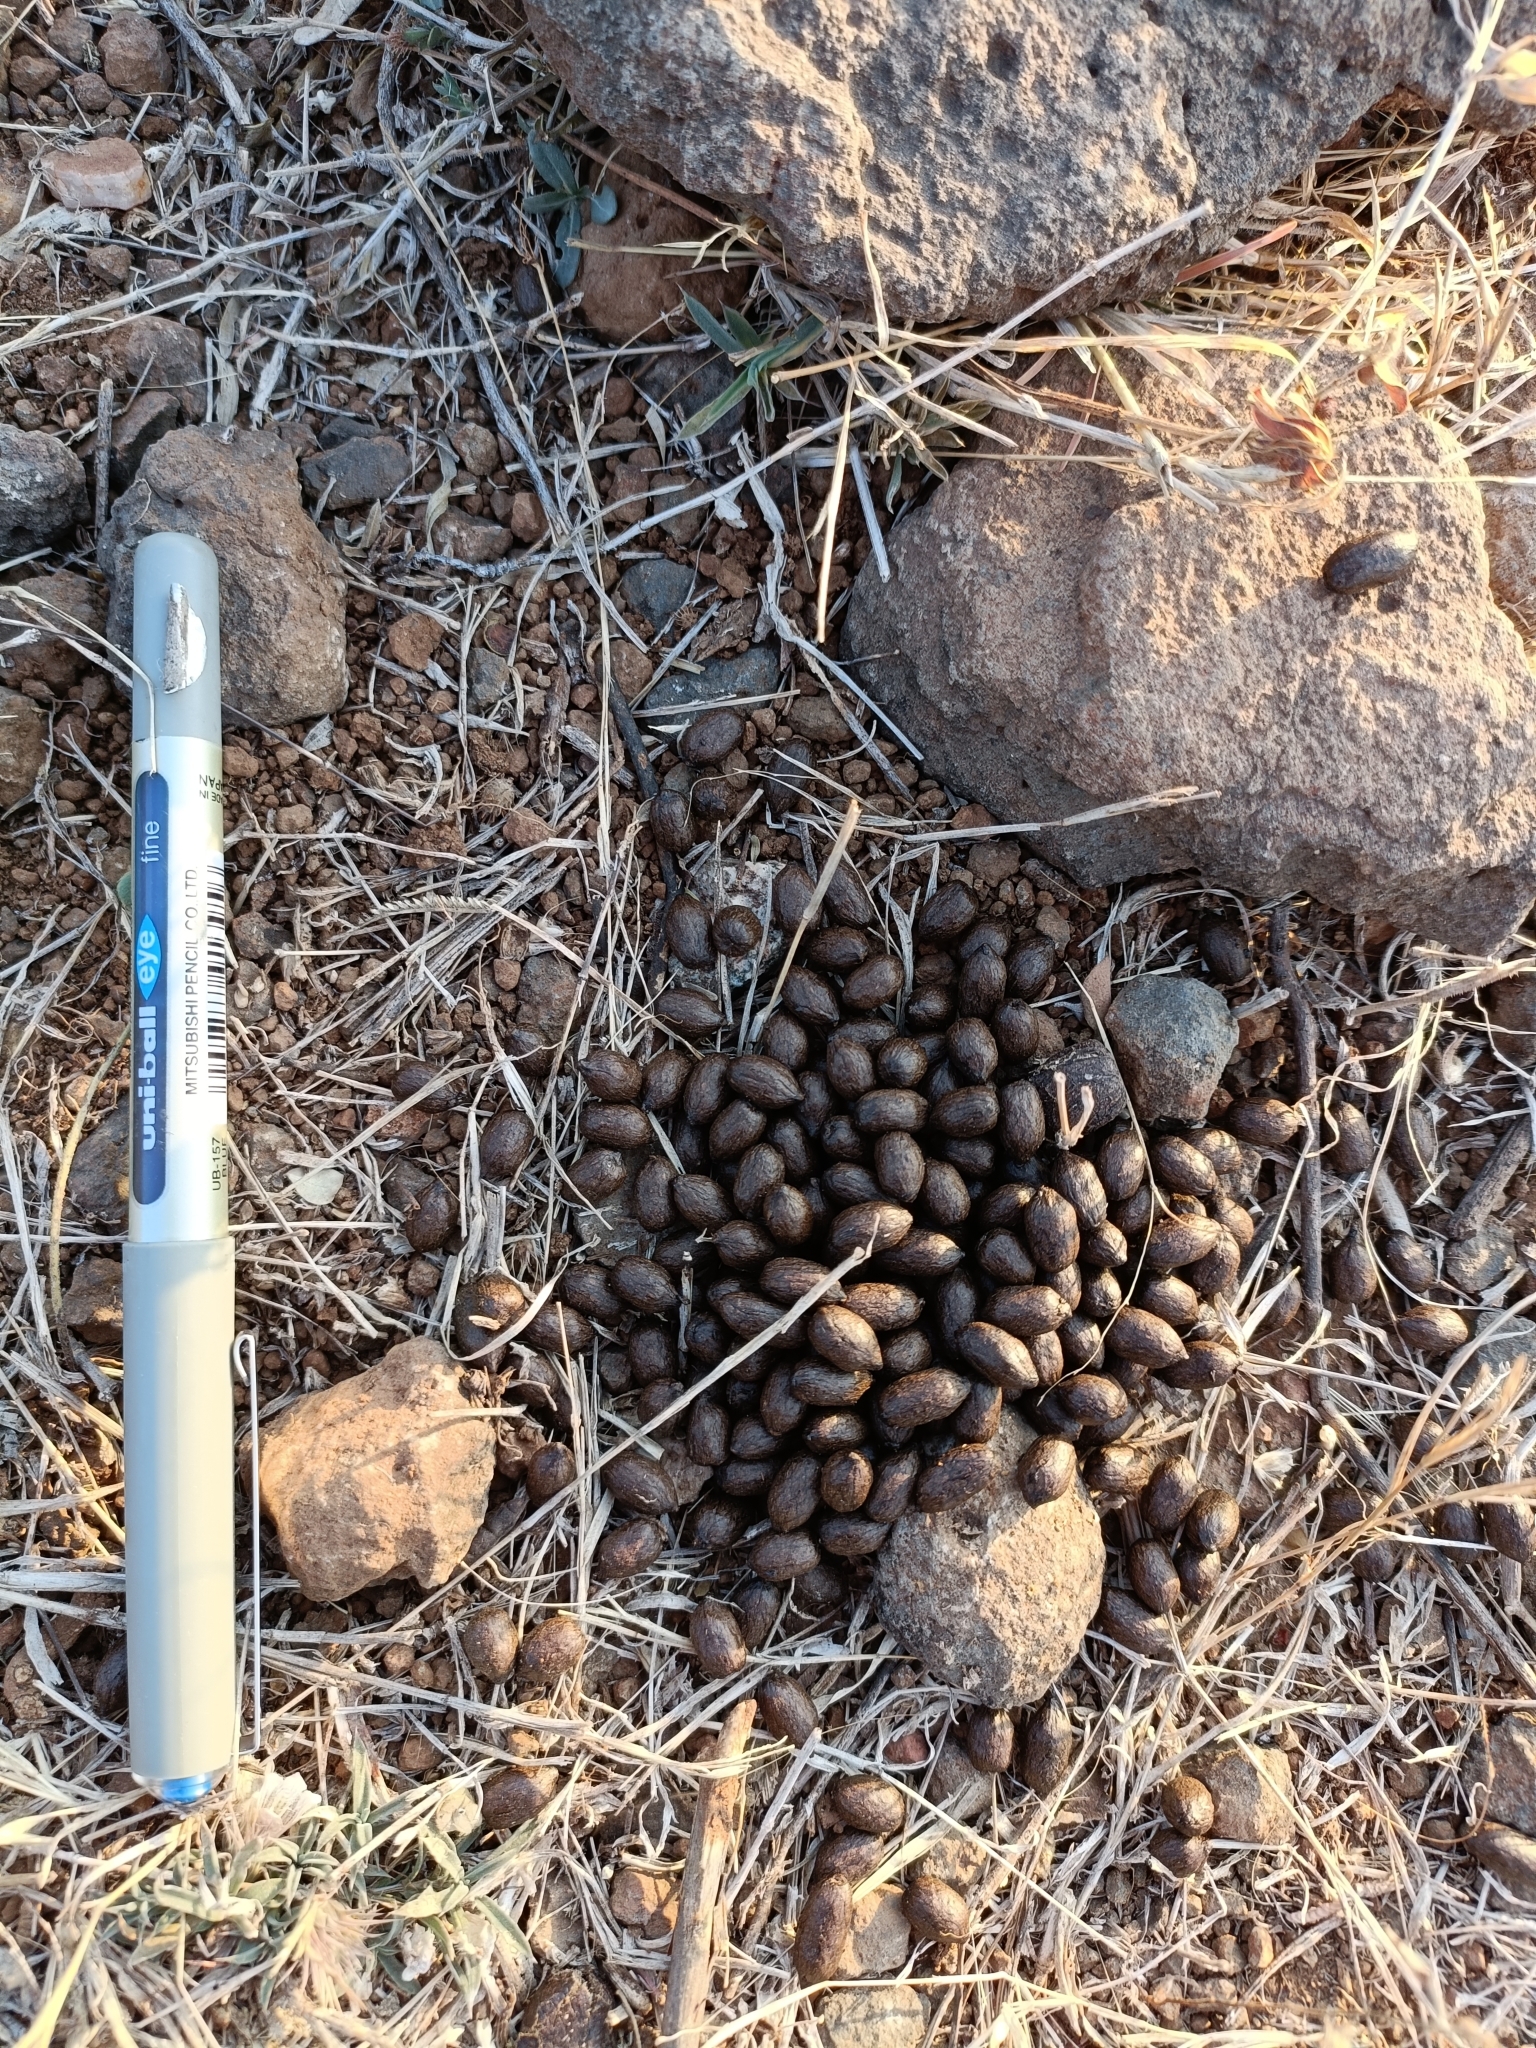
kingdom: Animalia
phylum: Chordata
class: Mammalia
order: Artiodactyla
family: Bovidae
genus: Gazella
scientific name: Gazella bennettii
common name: Indian gazelle
